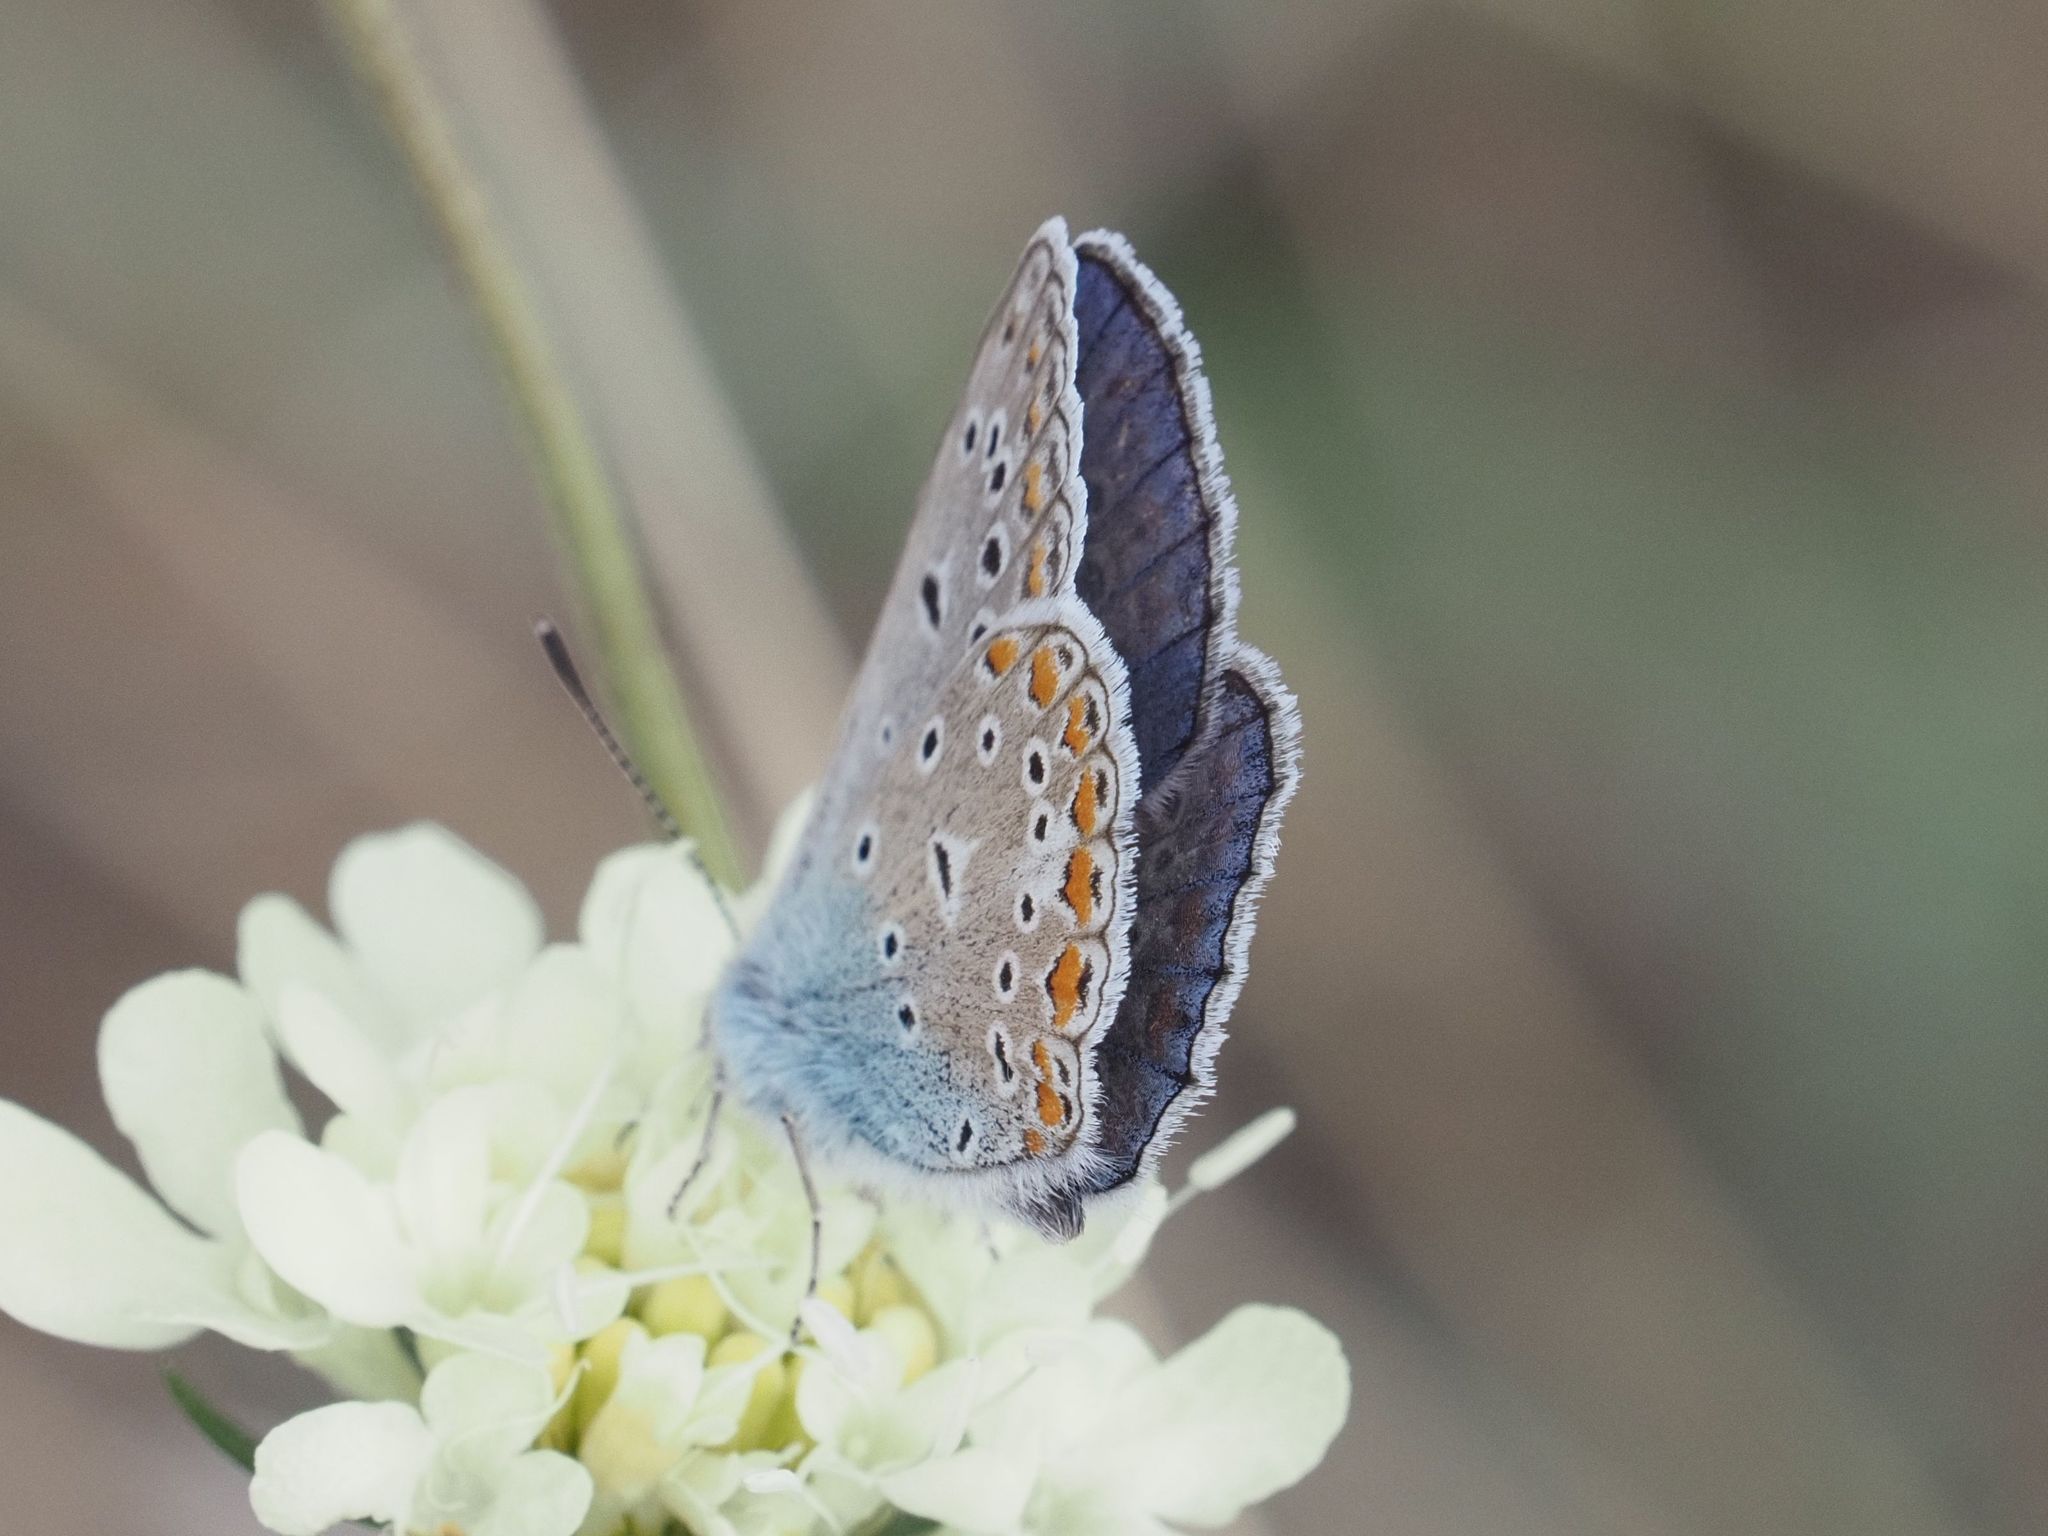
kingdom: Animalia
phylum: Arthropoda
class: Insecta
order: Lepidoptera
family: Lycaenidae
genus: Polyommatus
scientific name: Polyommatus icarus
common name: Common blue
